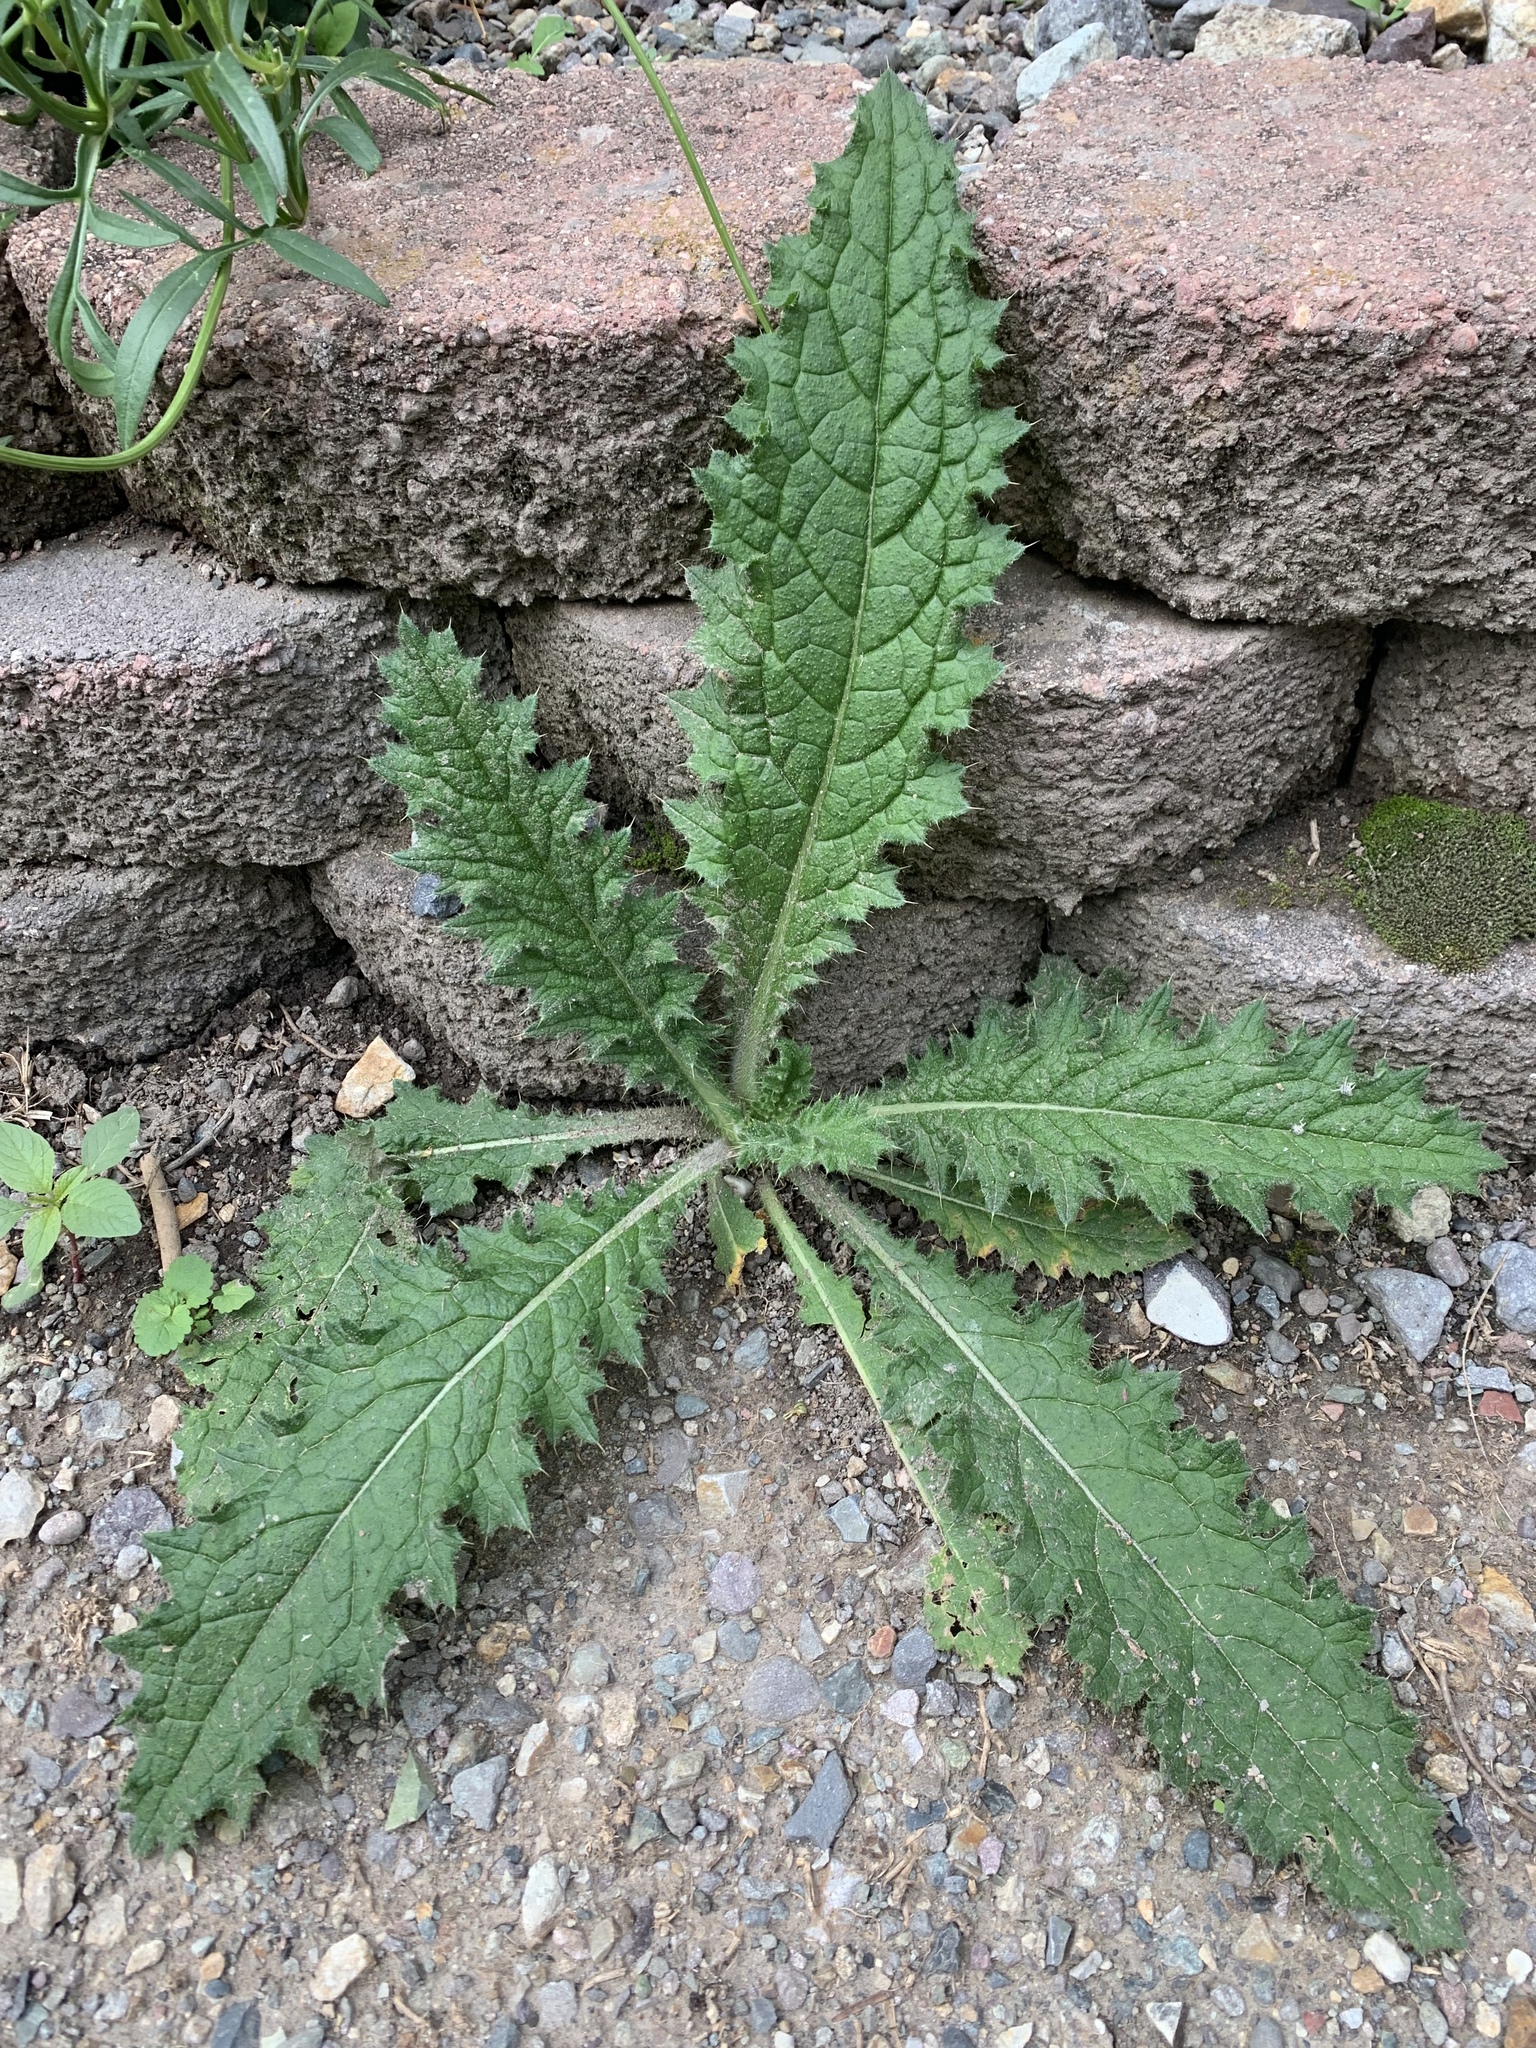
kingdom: Plantae
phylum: Tracheophyta
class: Magnoliopsida
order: Asterales
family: Asteraceae
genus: Cirsium
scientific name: Cirsium vulgare
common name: Bull thistle
